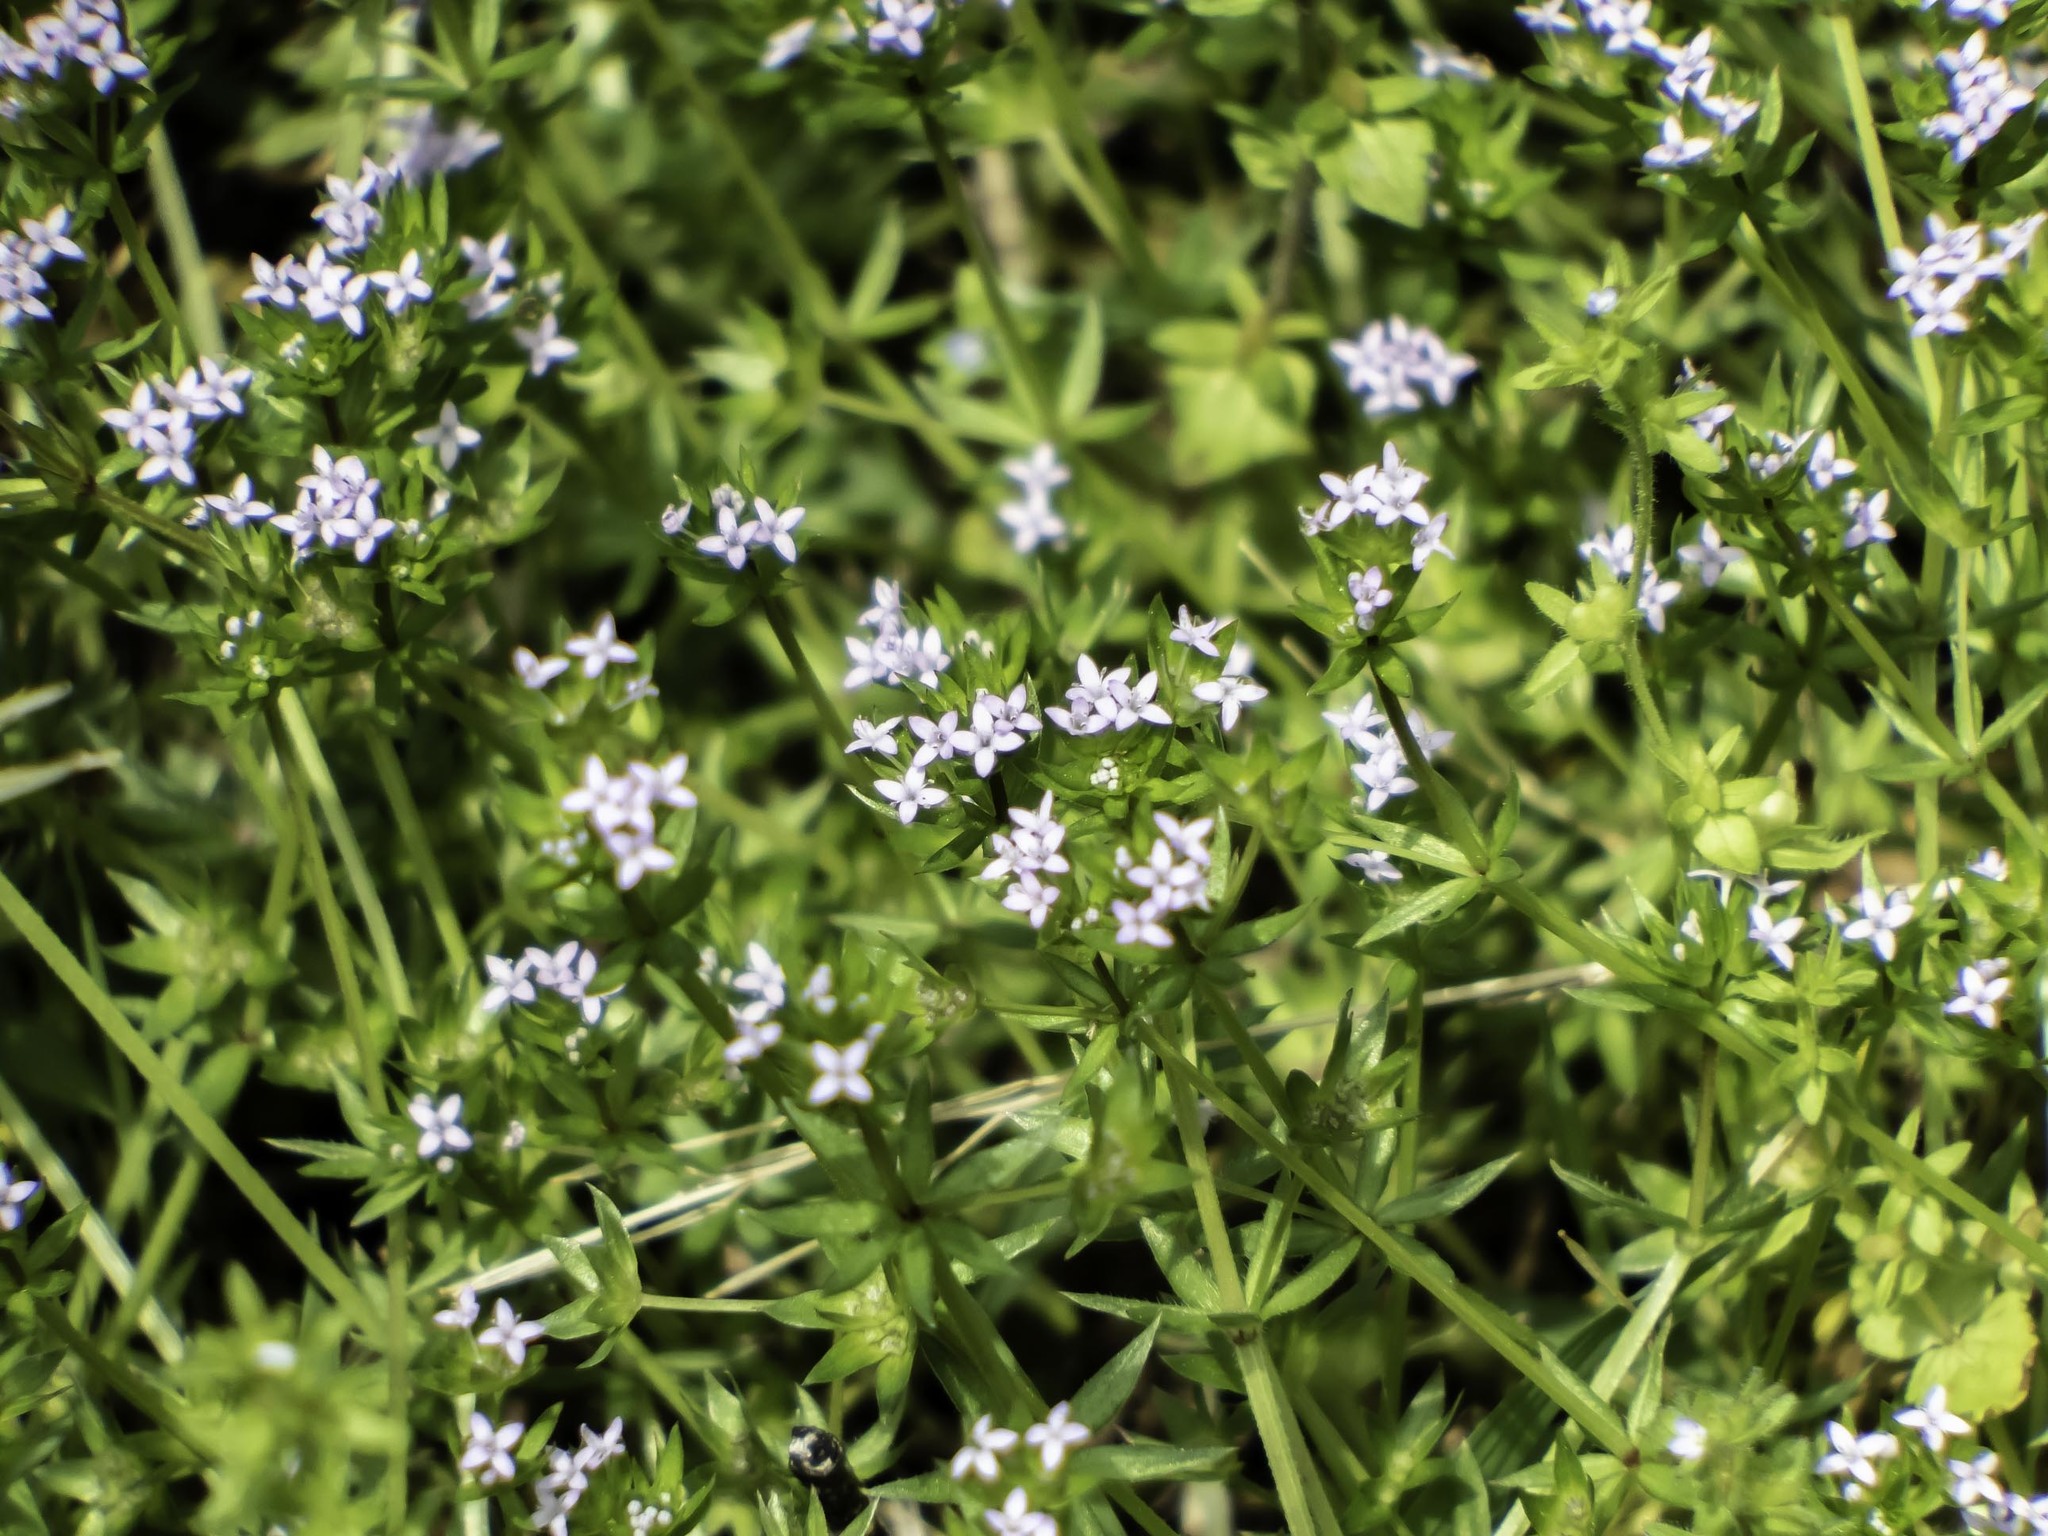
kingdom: Plantae
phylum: Tracheophyta
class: Magnoliopsida
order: Gentianales
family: Rubiaceae
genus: Sherardia
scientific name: Sherardia arvensis
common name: Field madder
